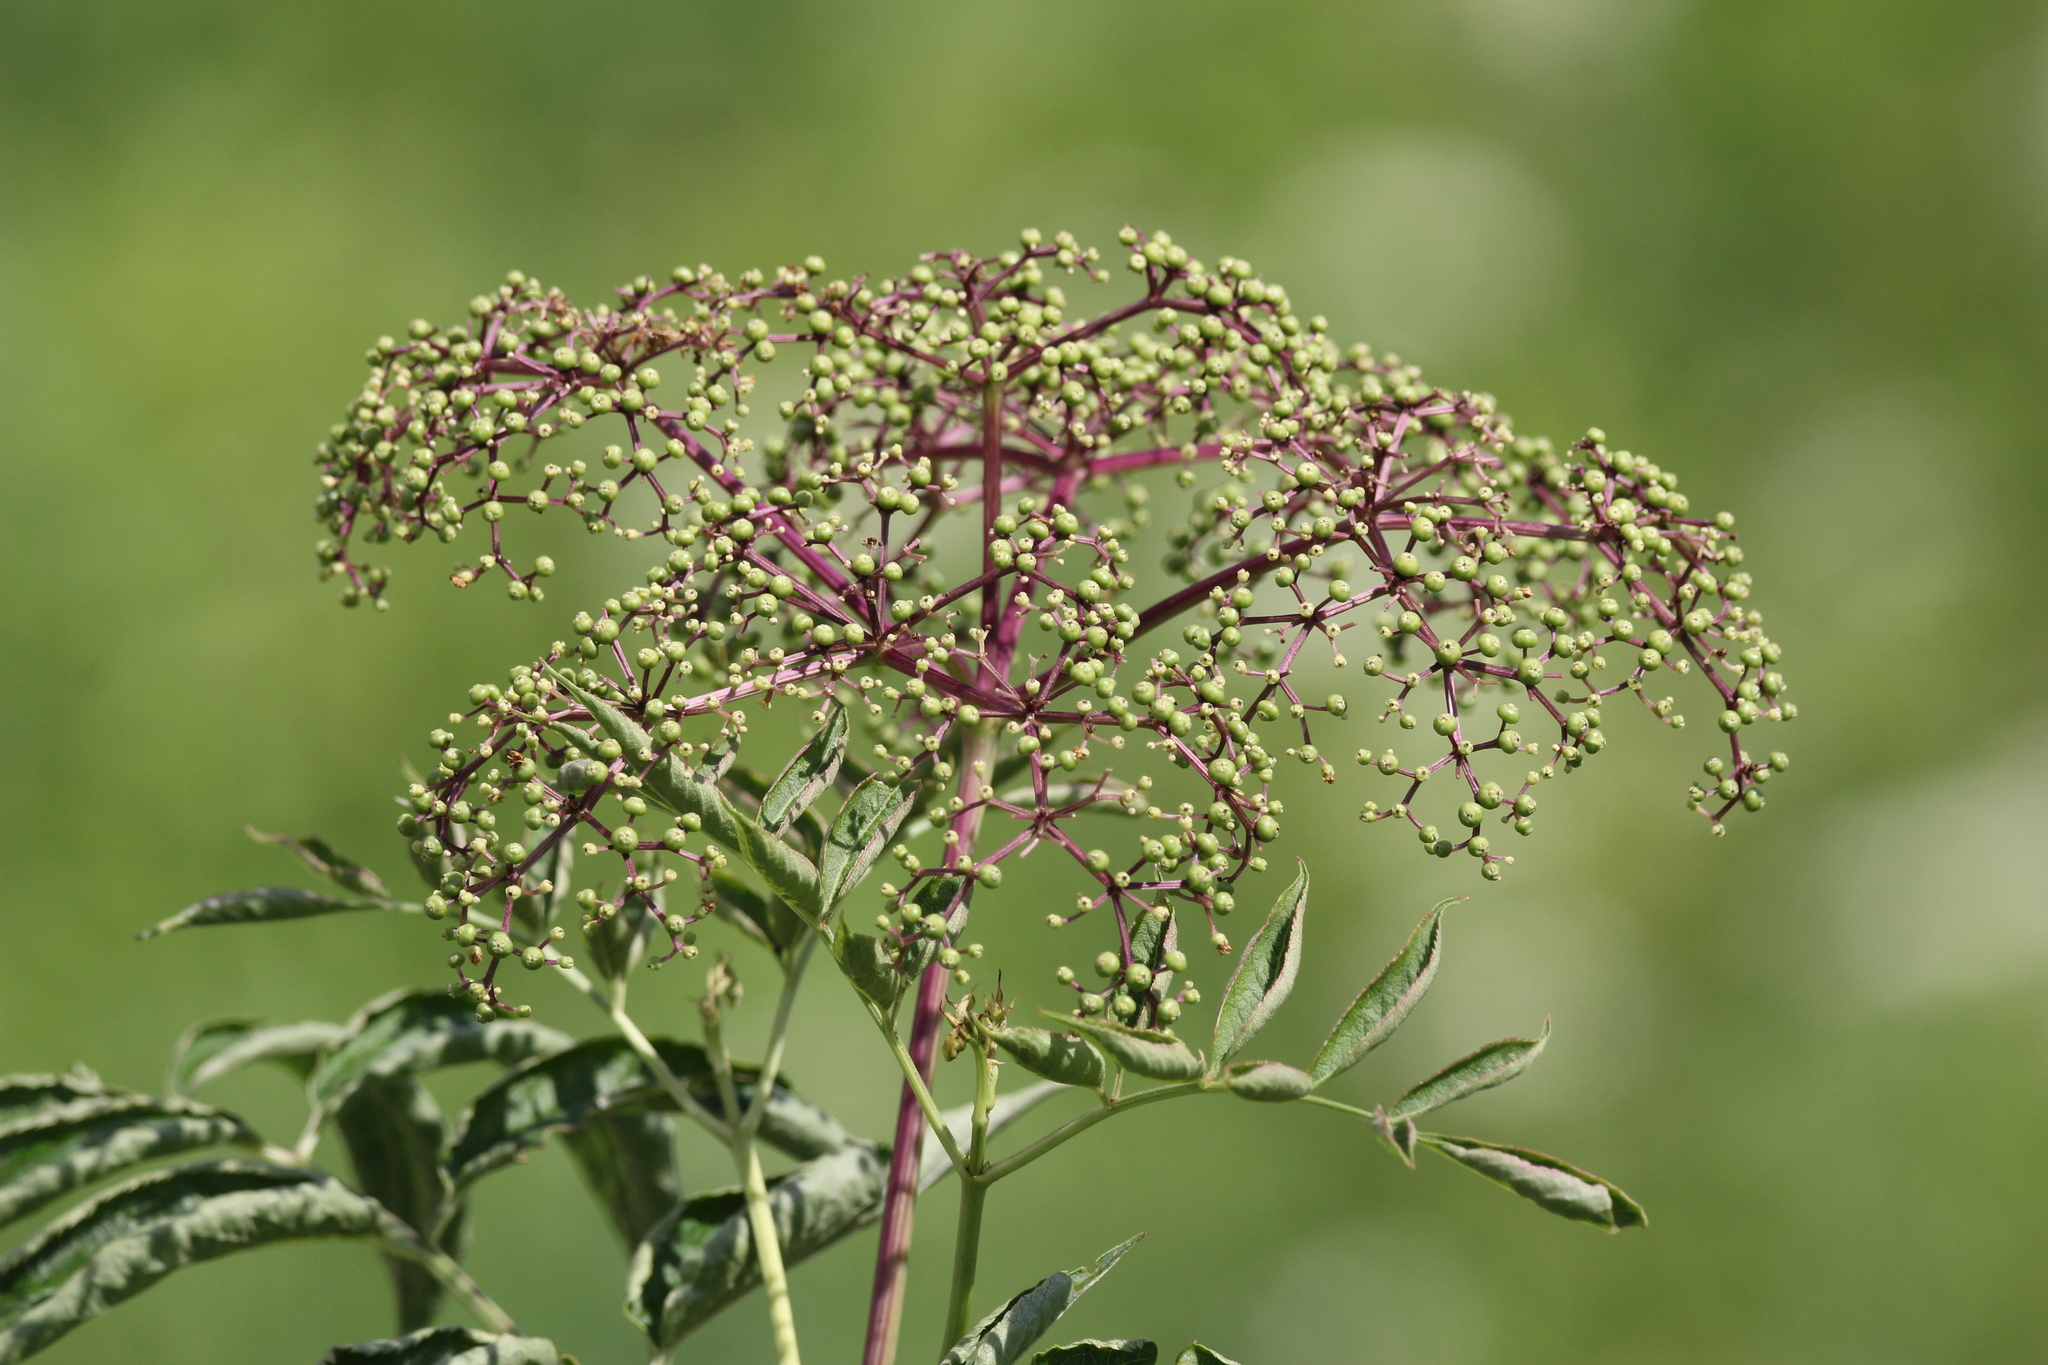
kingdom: Plantae
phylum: Tracheophyta
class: Magnoliopsida
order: Dipsacales
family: Viburnaceae
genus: Sambucus
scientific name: Sambucus canadensis
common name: American elder
